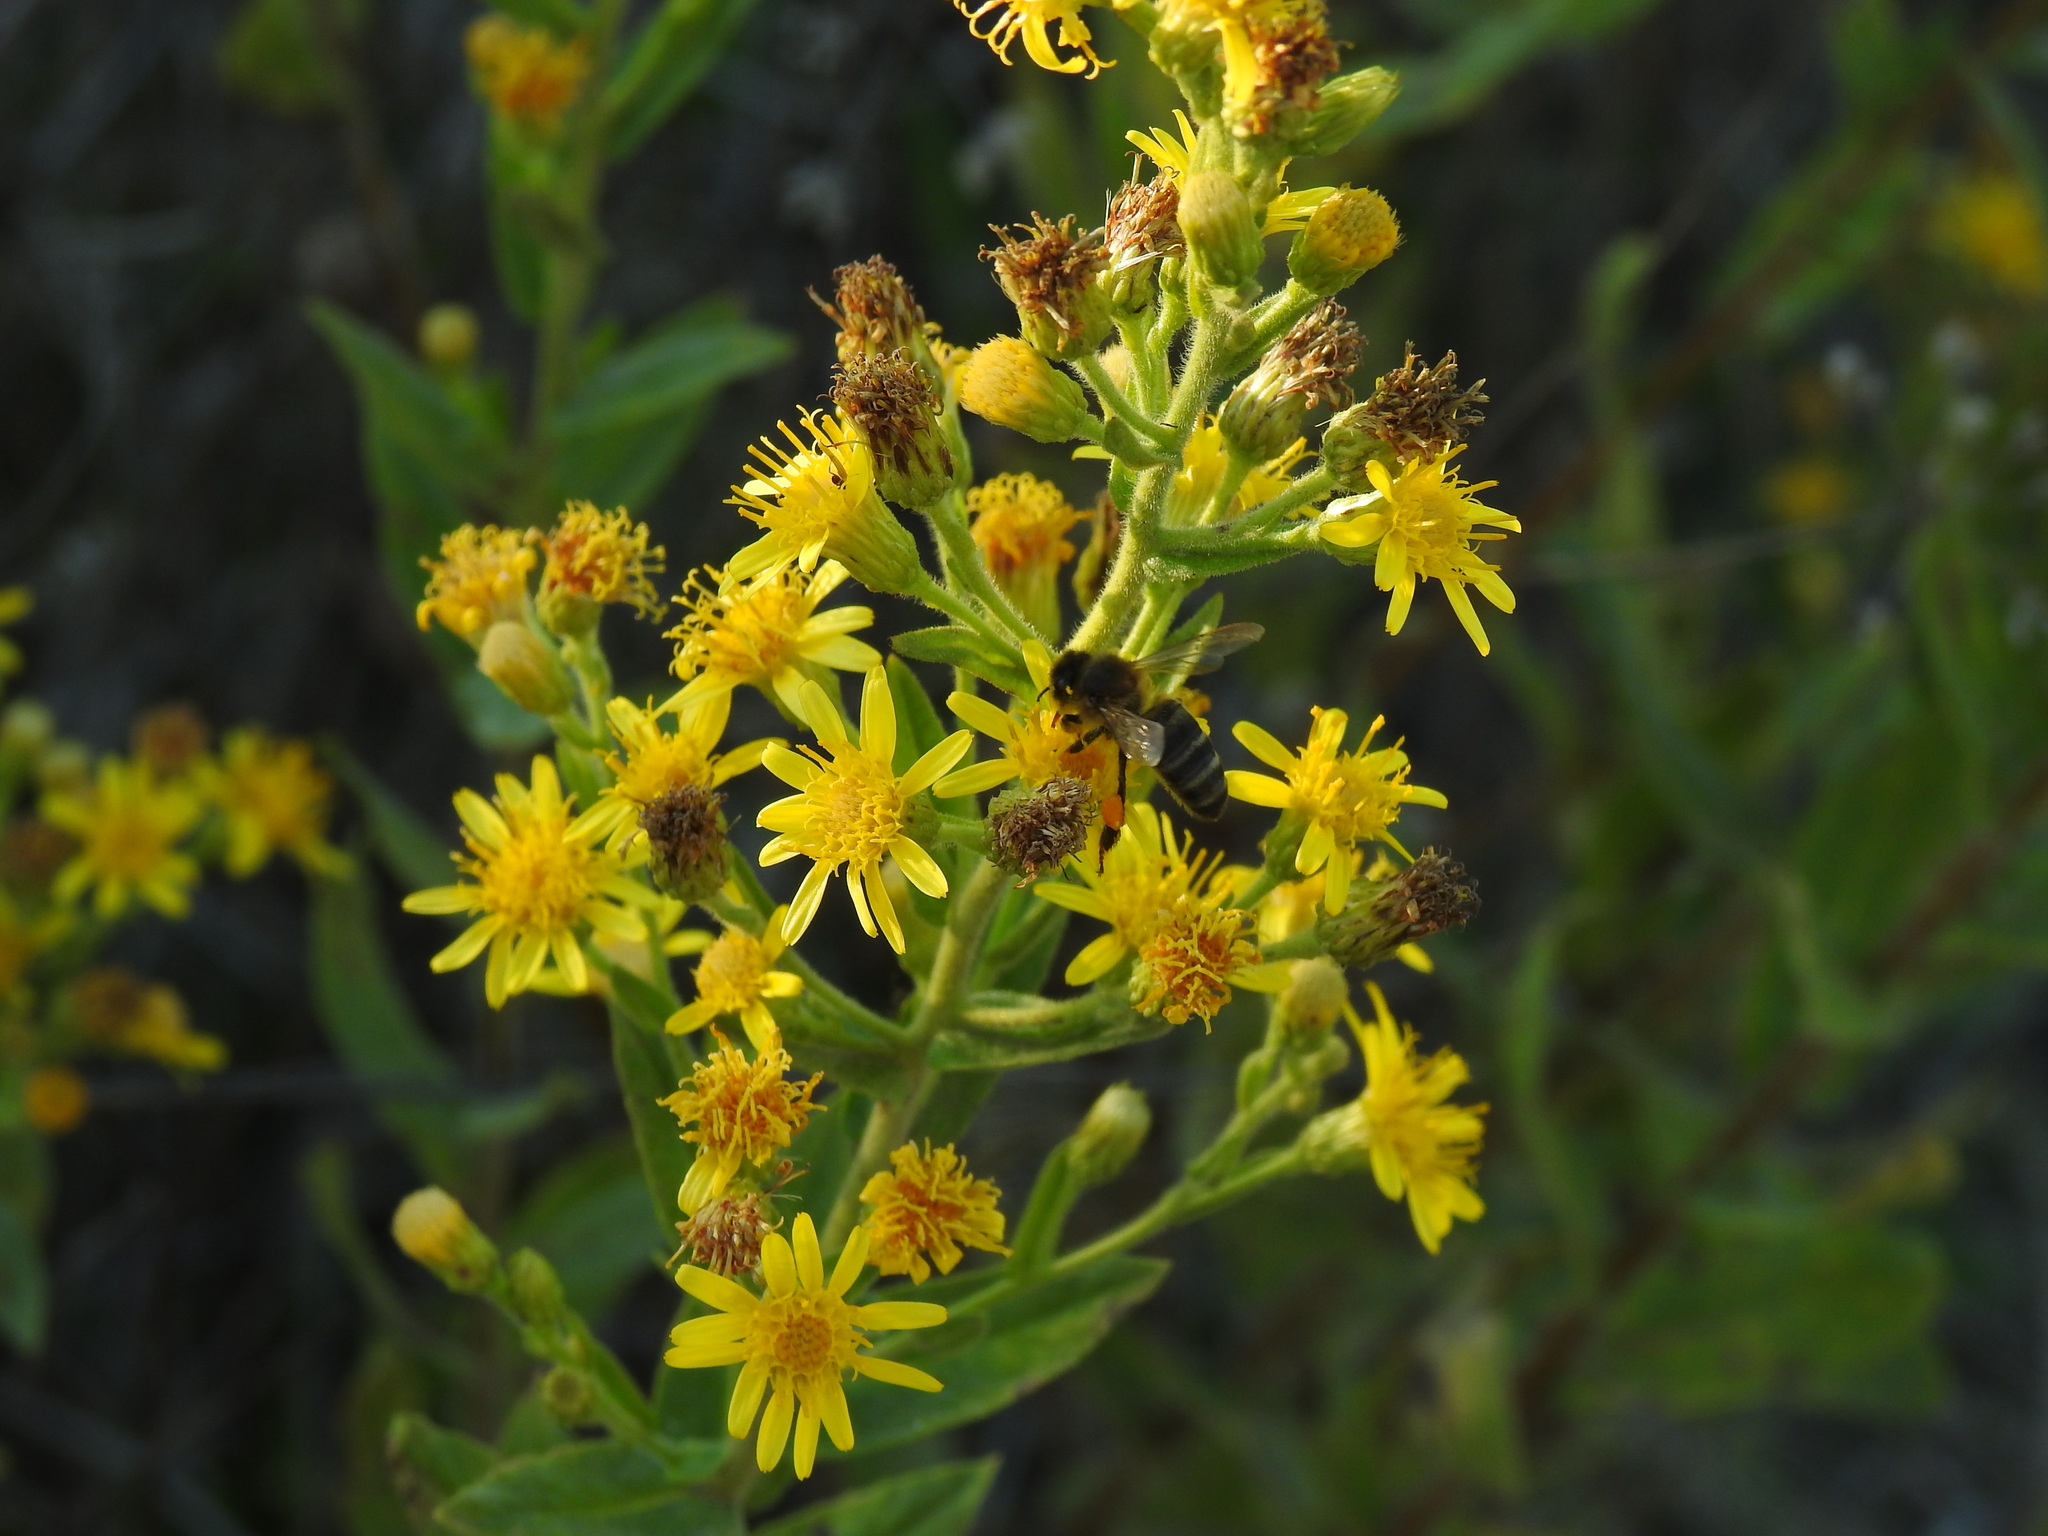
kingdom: Animalia
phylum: Arthropoda
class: Insecta
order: Hymenoptera
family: Apidae
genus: Apis
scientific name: Apis mellifera
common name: Honey bee
